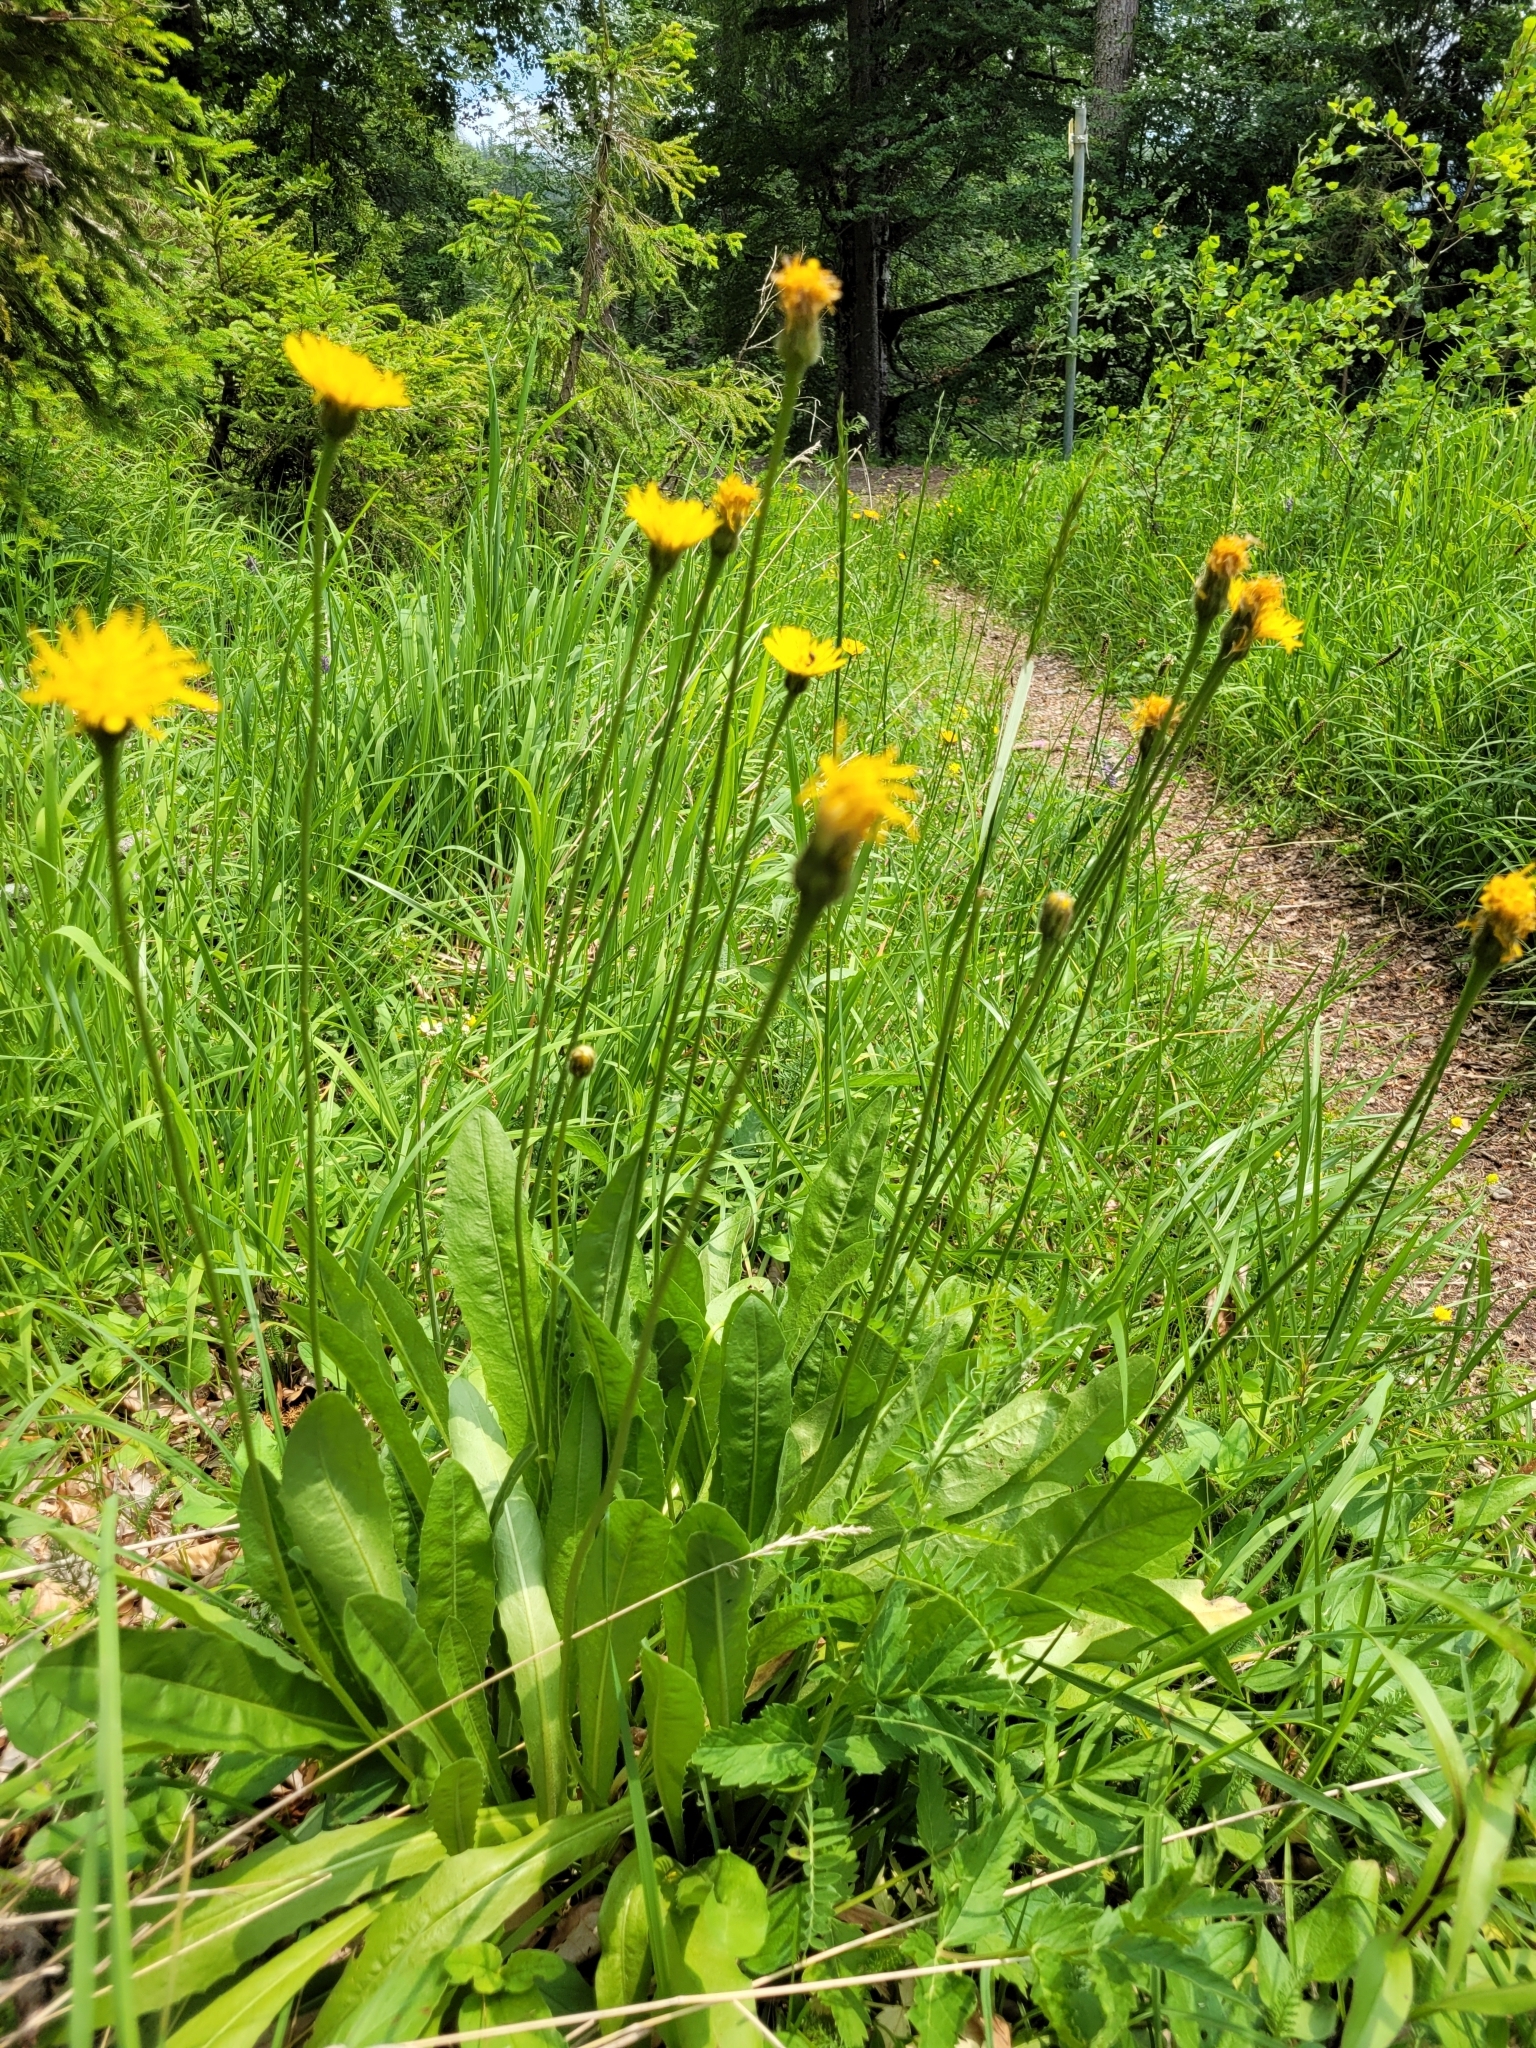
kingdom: Plantae
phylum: Tracheophyta
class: Magnoliopsida
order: Asterales
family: Asteraceae
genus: Leontodon
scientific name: Leontodon hispidus
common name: Rough hawkbit
